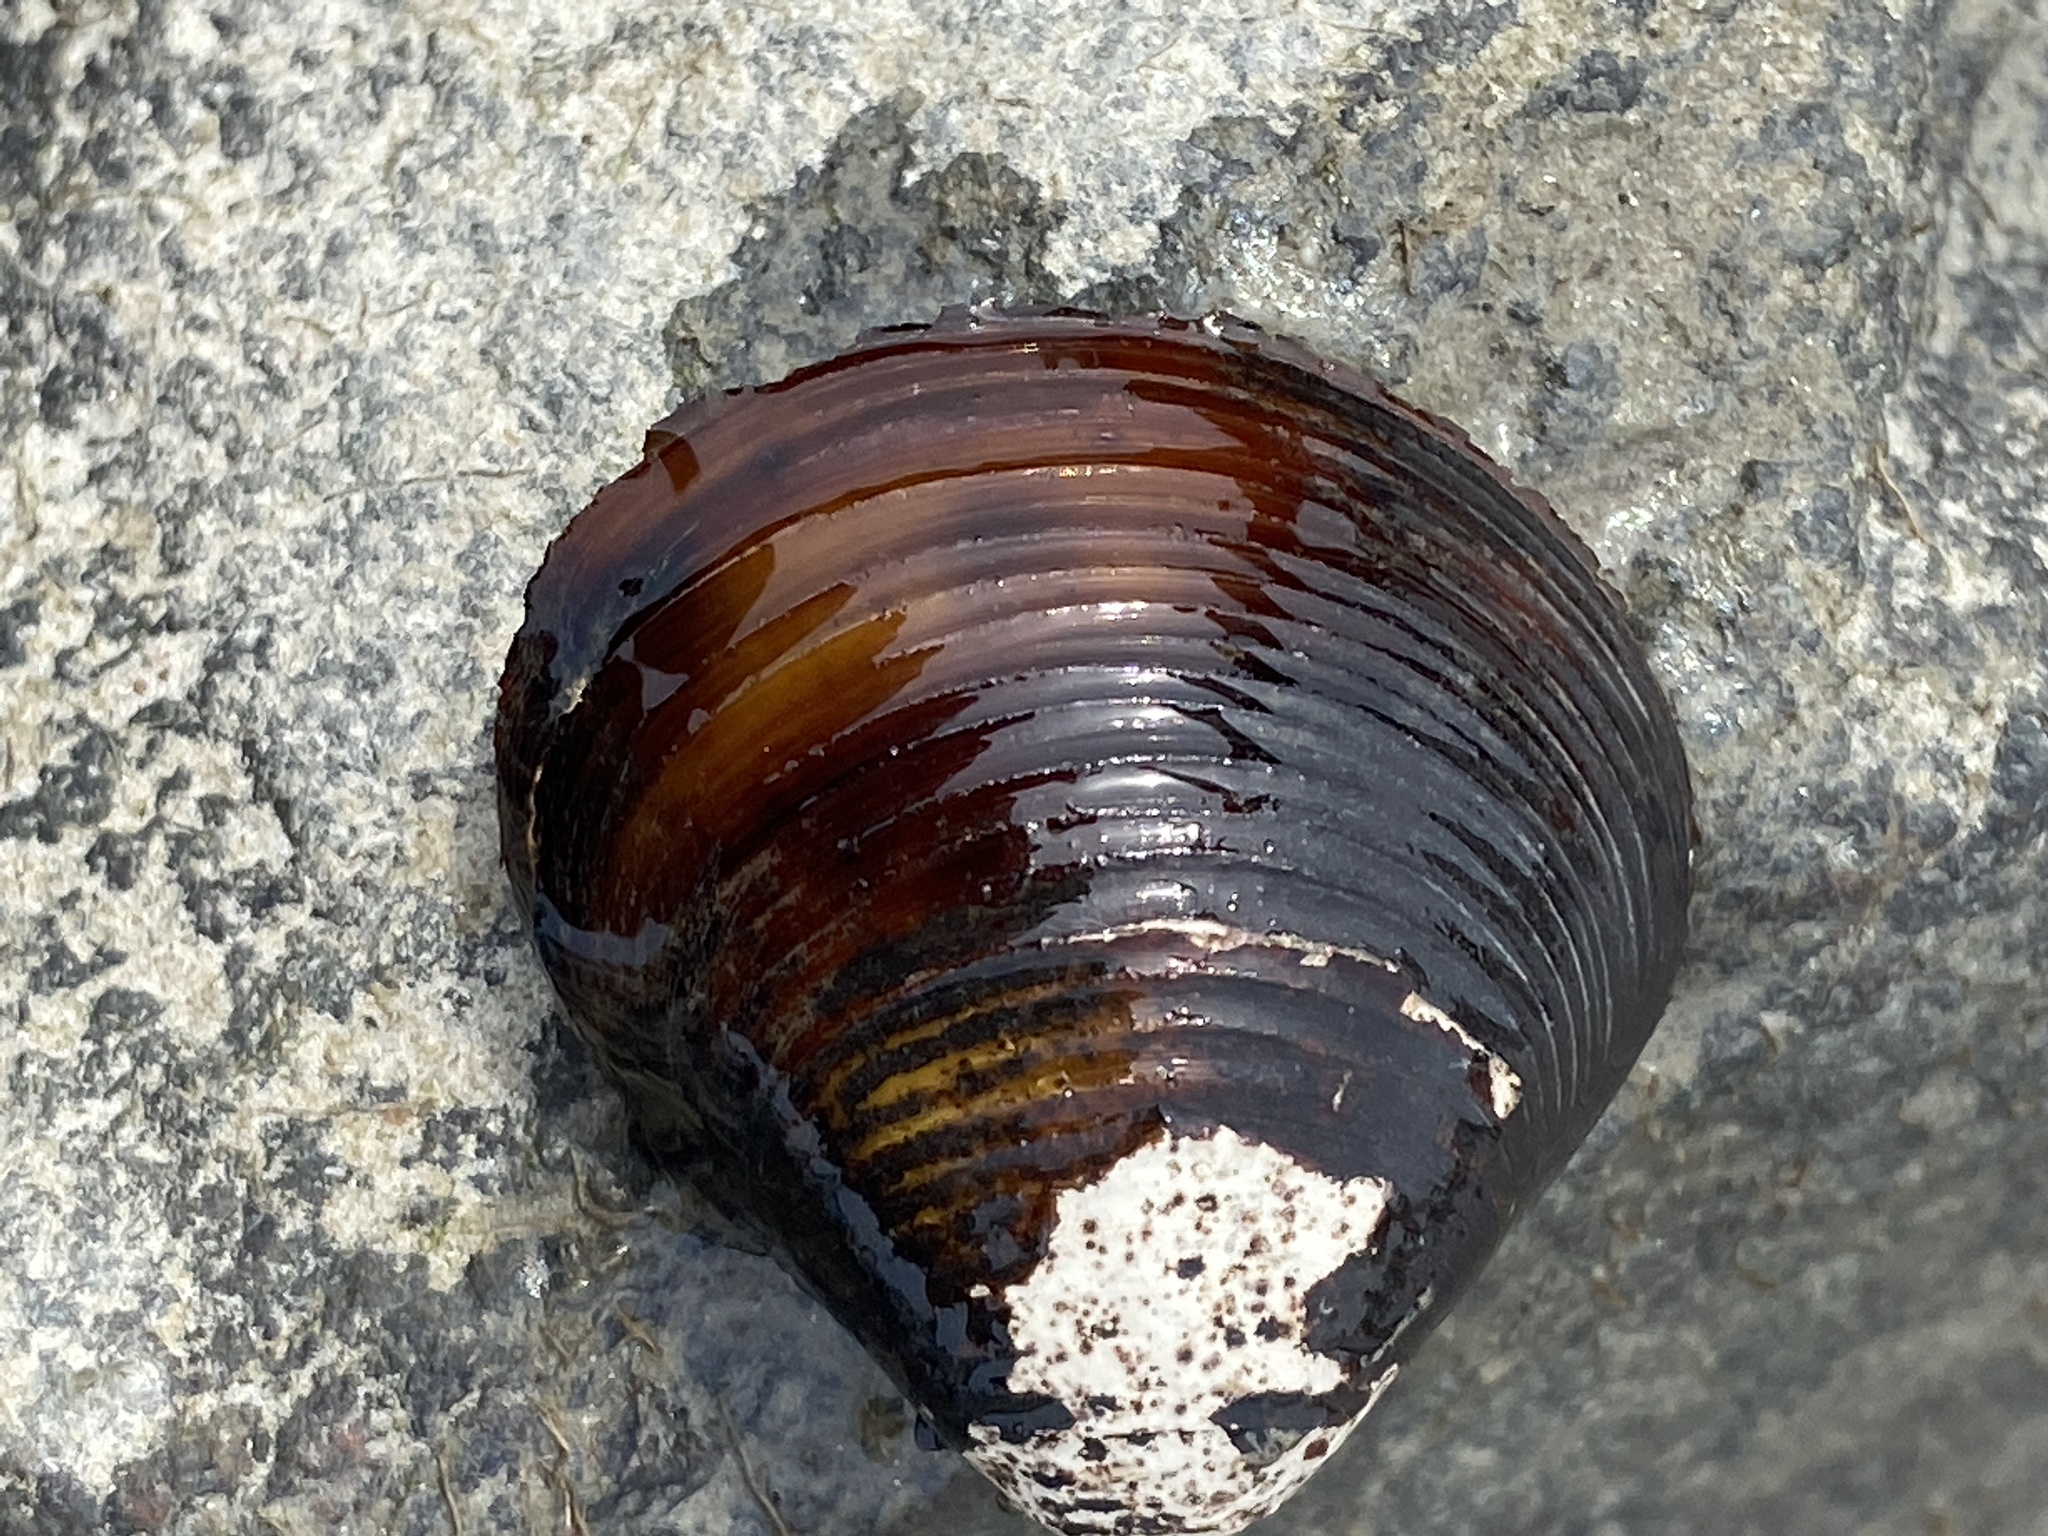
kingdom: Animalia
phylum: Mollusca
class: Bivalvia
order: Venerida
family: Cyrenidae
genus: Corbicula
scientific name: Corbicula fluminea
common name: Asian clam
